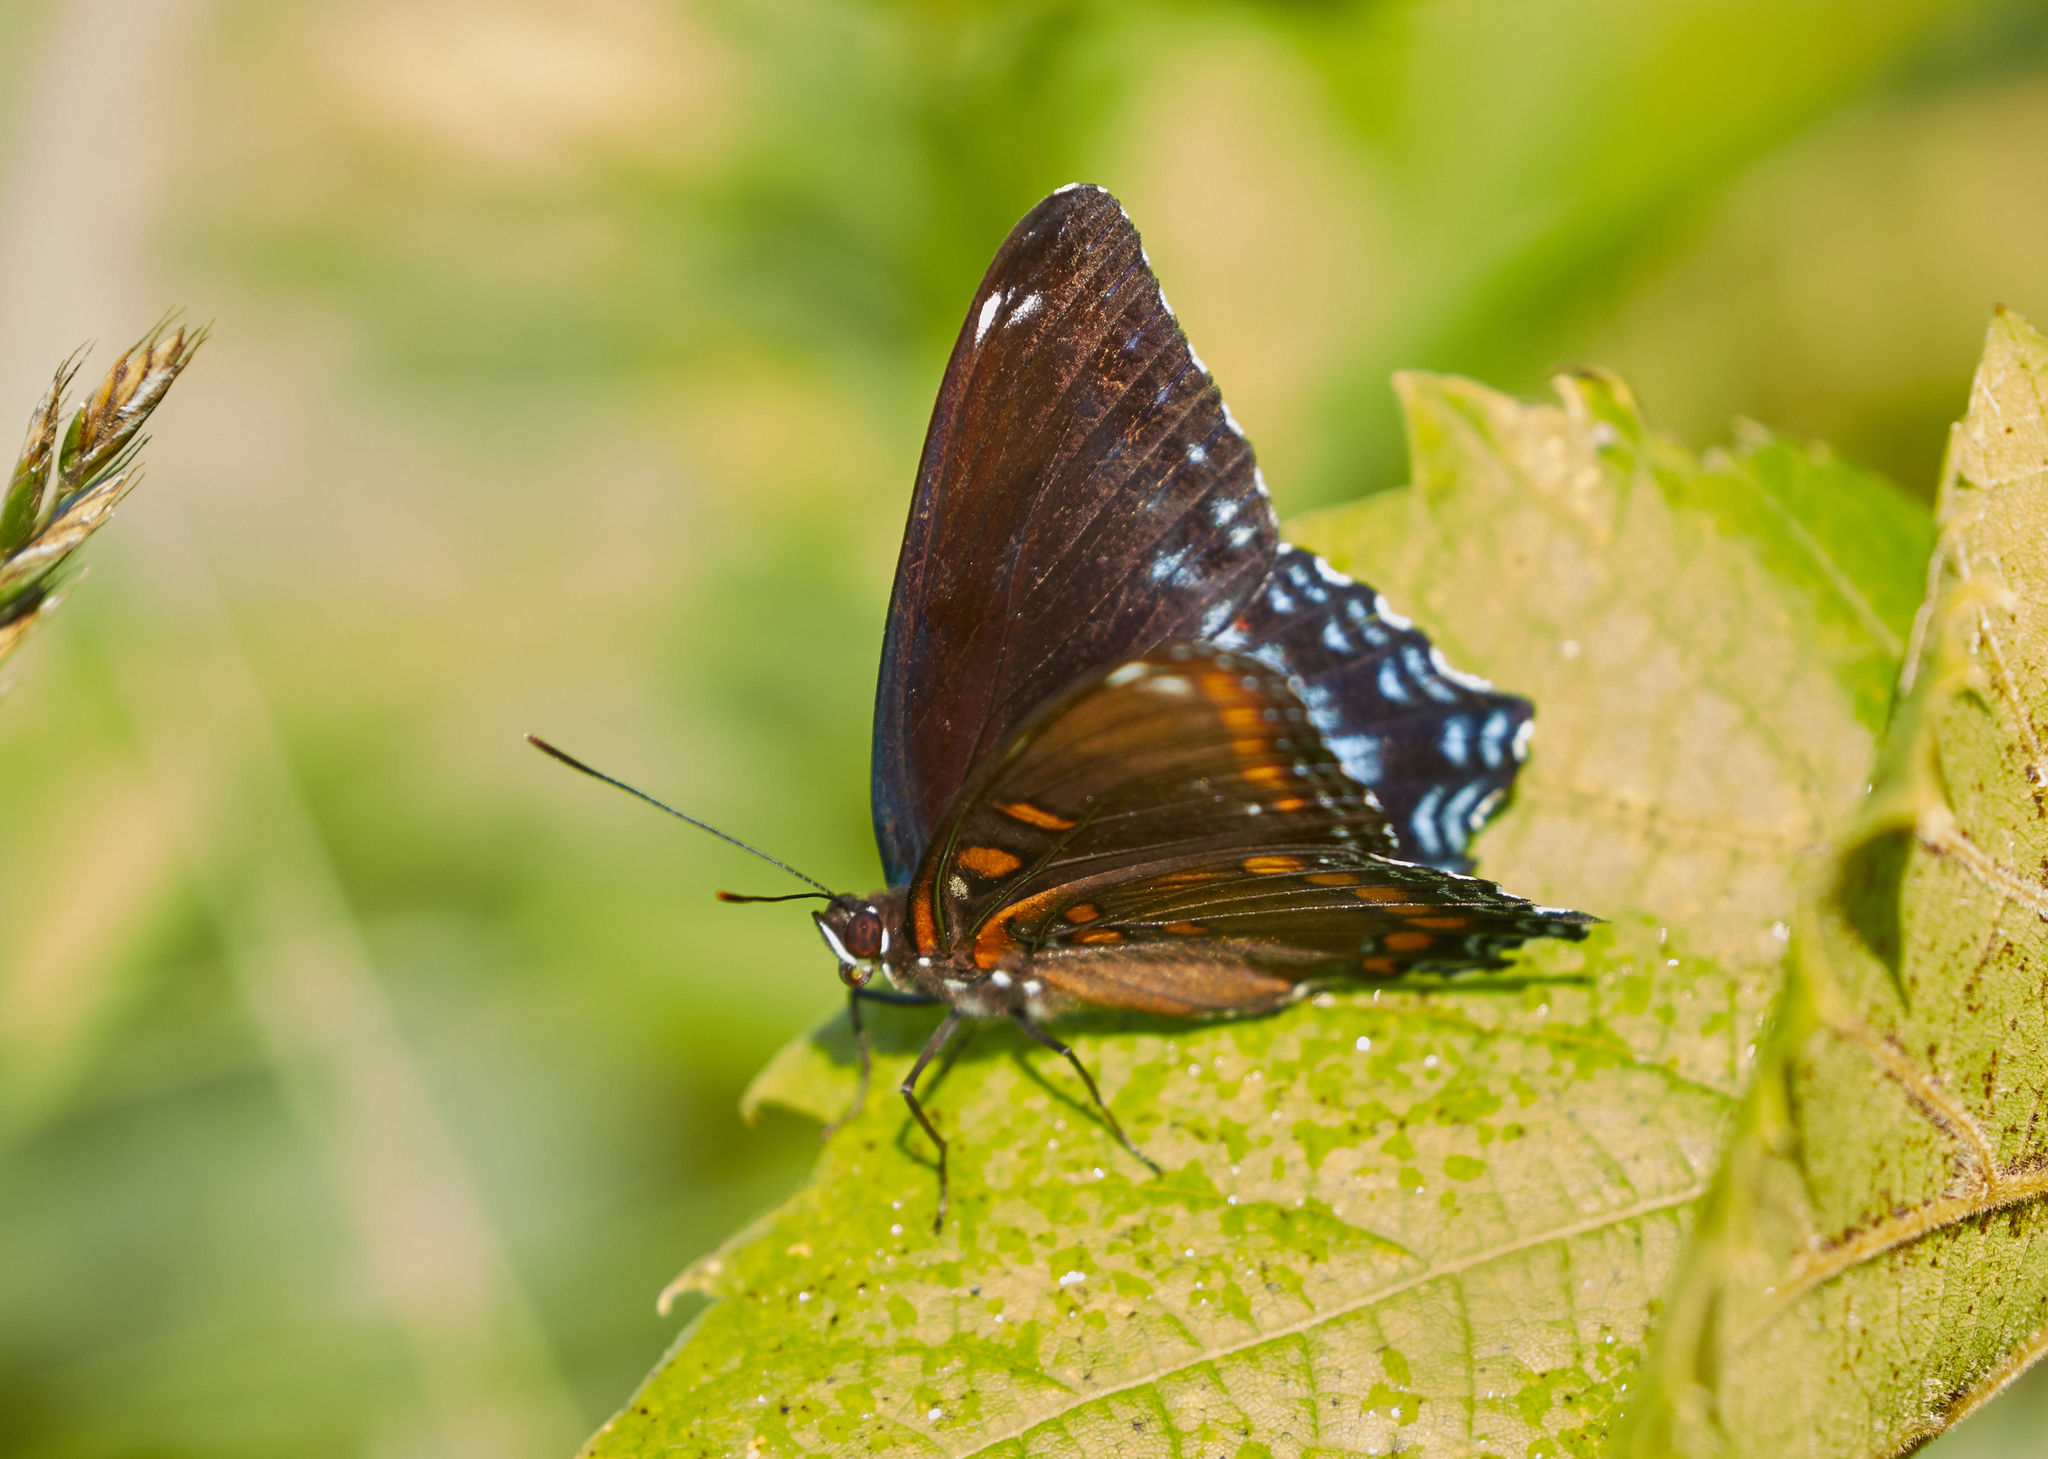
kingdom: Animalia
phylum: Arthropoda
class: Insecta
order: Lepidoptera
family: Nymphalidae
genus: Limenitis
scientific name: Limenitis astyanax
